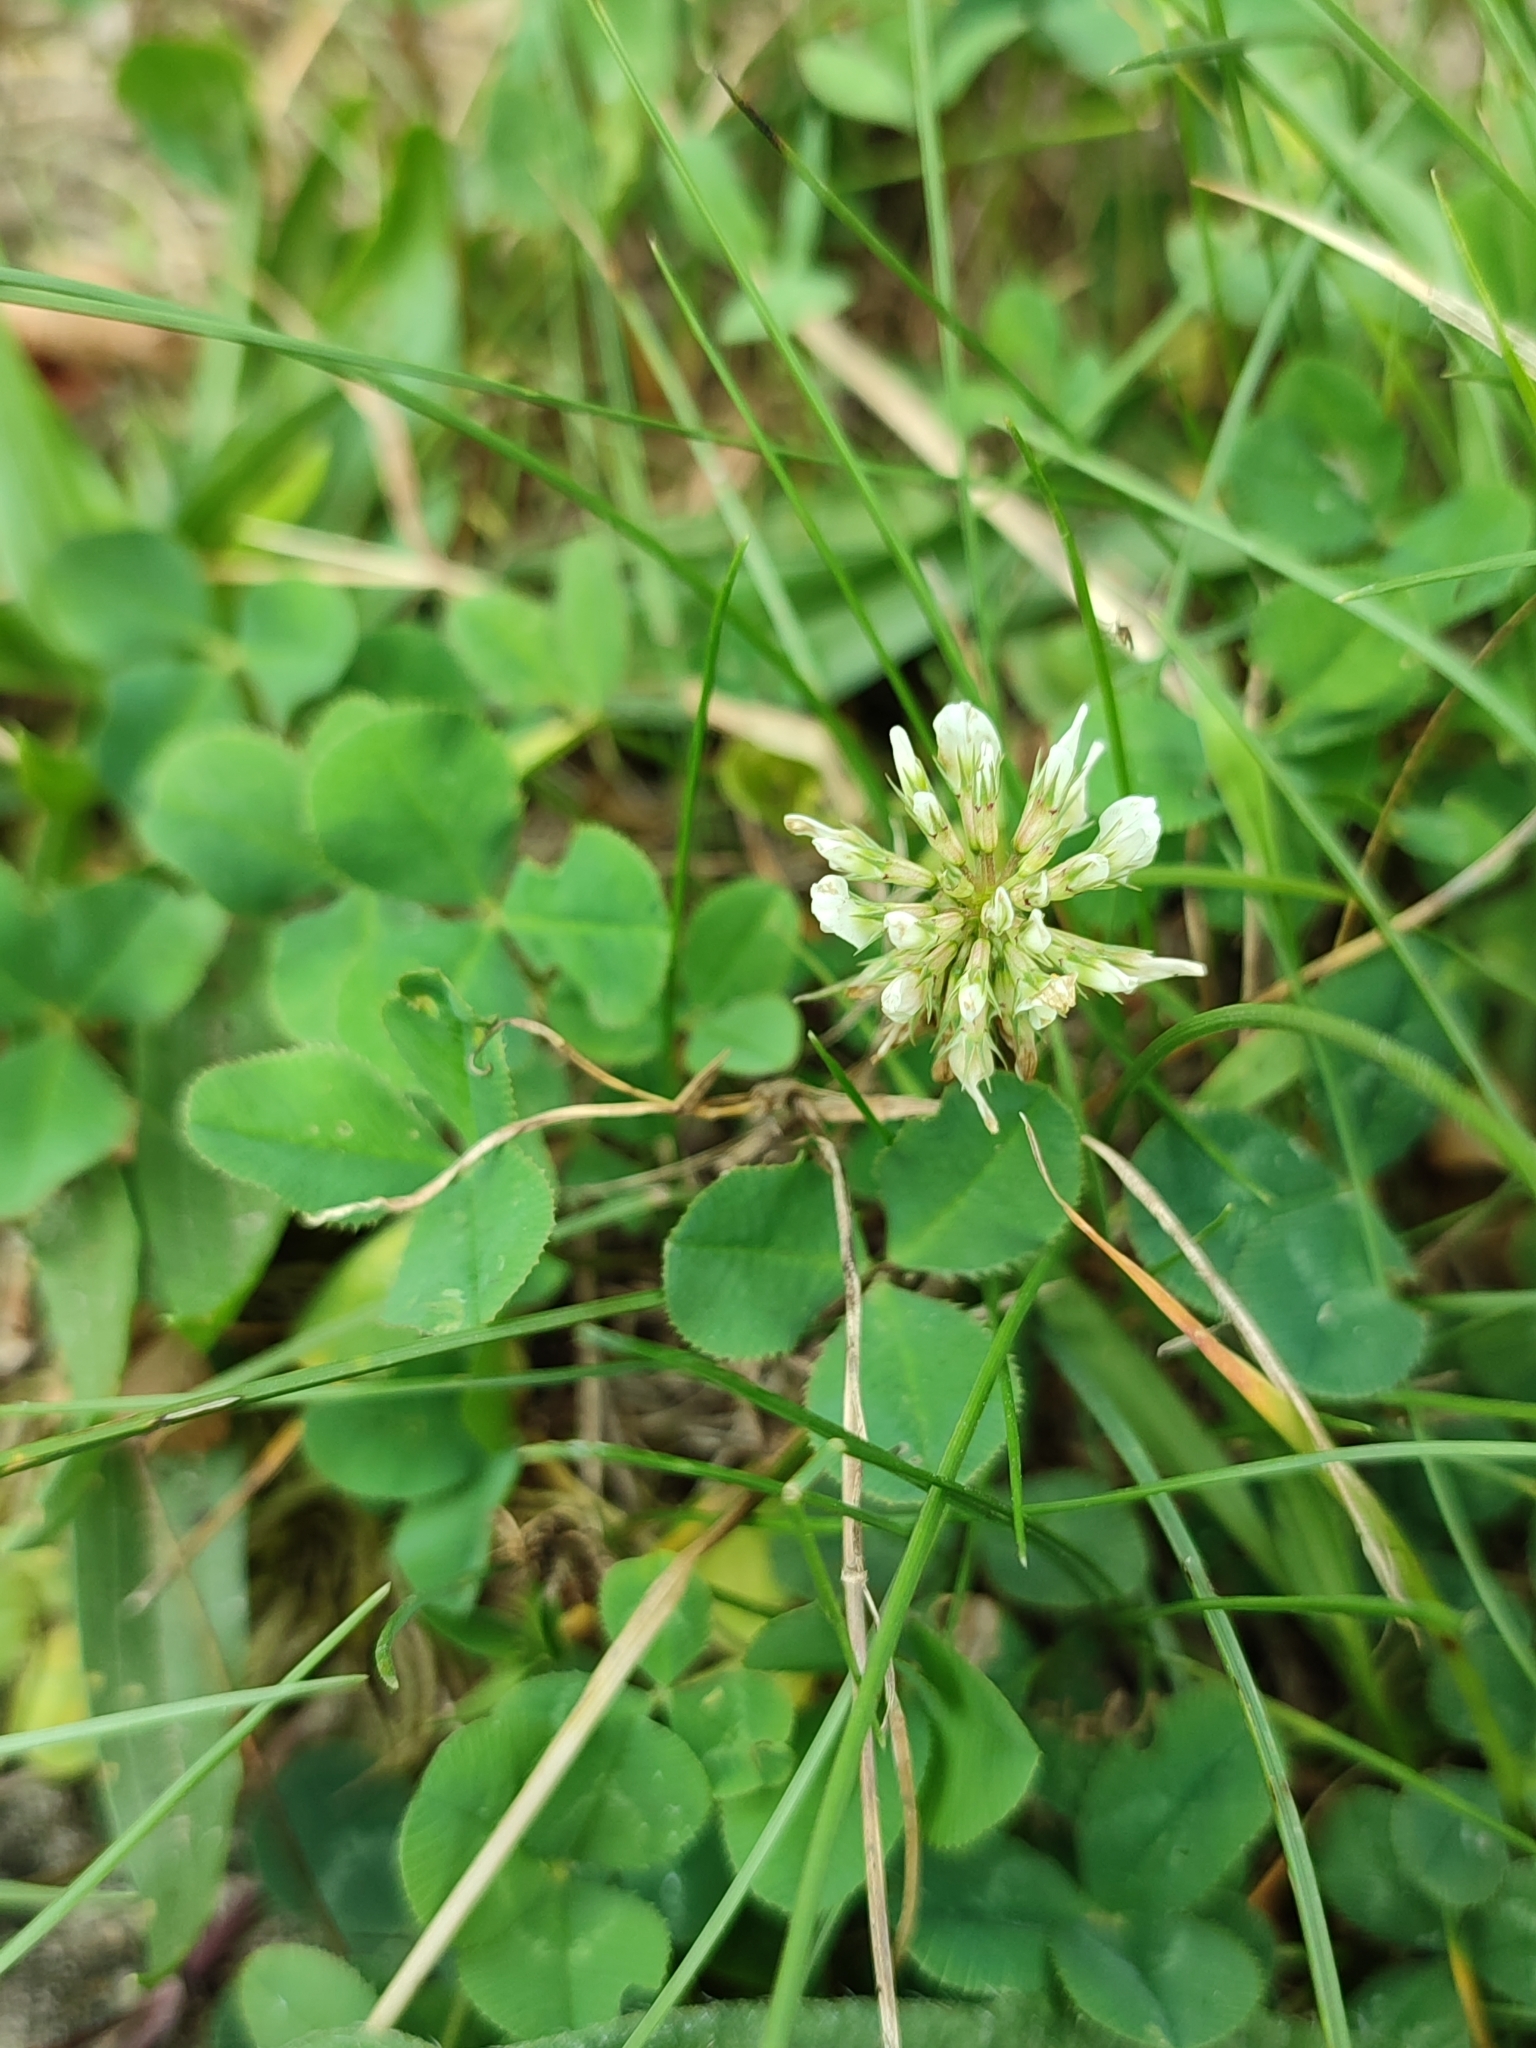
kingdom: Plantae
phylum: Tracheophyta
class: Magnoliopsida
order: Fabales
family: Fabaceae
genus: Trifolium
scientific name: Trifolium repens
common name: White clover
